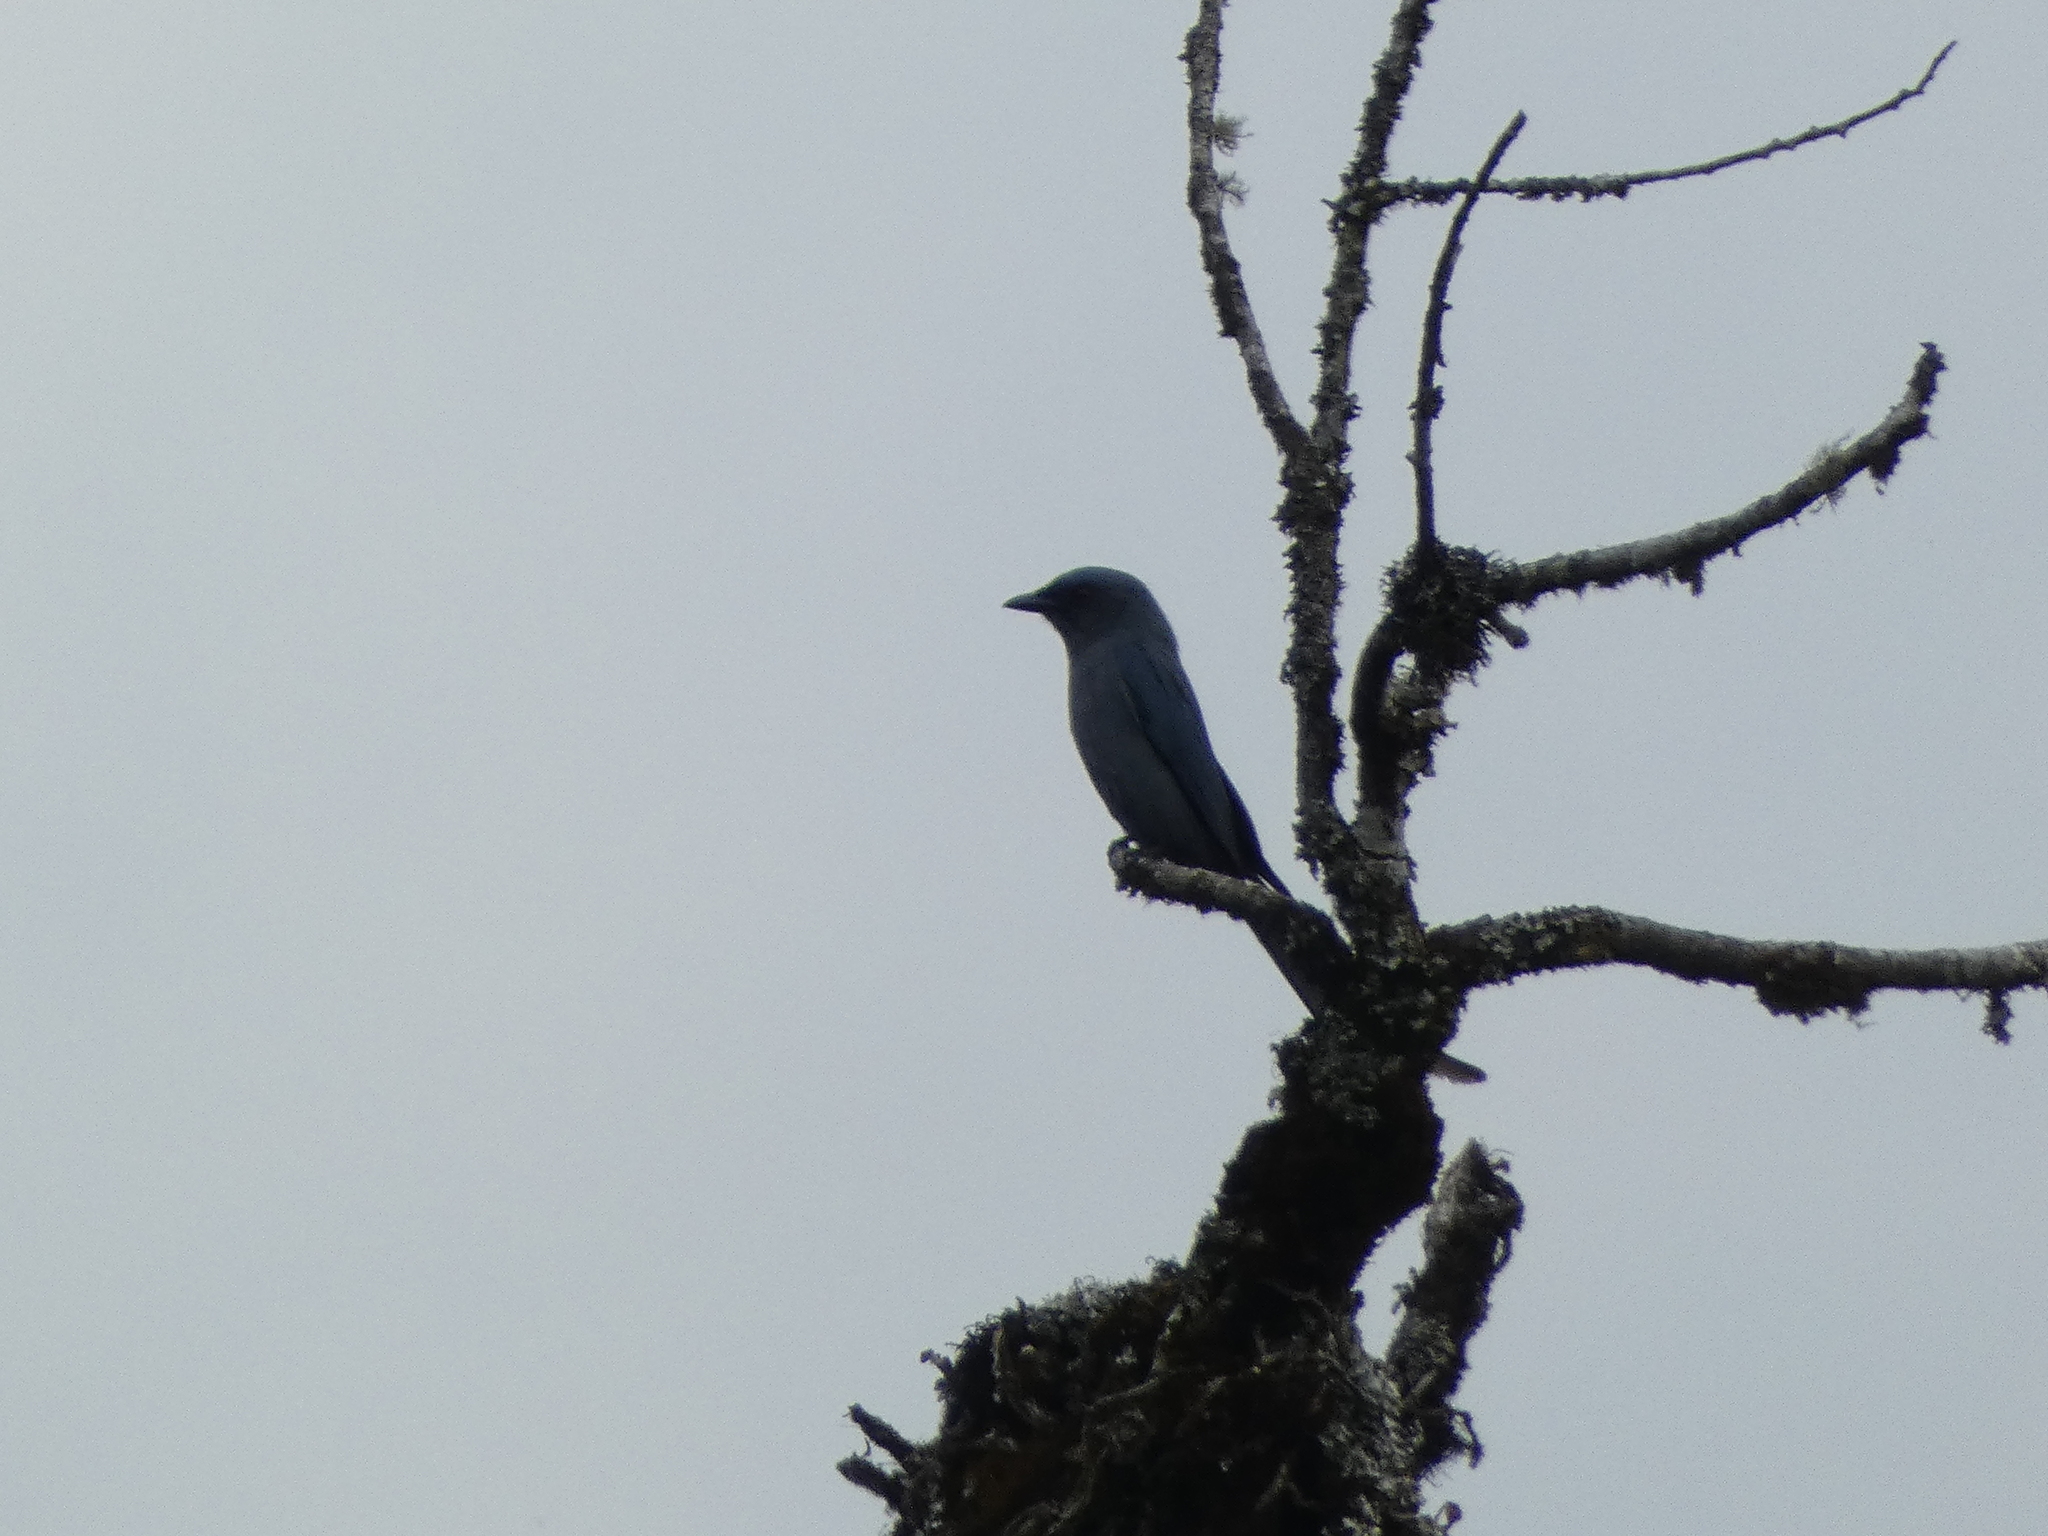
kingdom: Animalia
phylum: Chordata
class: Aves
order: Passeriformes
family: Dicruridae
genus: Dicrurus
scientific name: Dicrurus leucophaeus
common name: Ashy drongo
